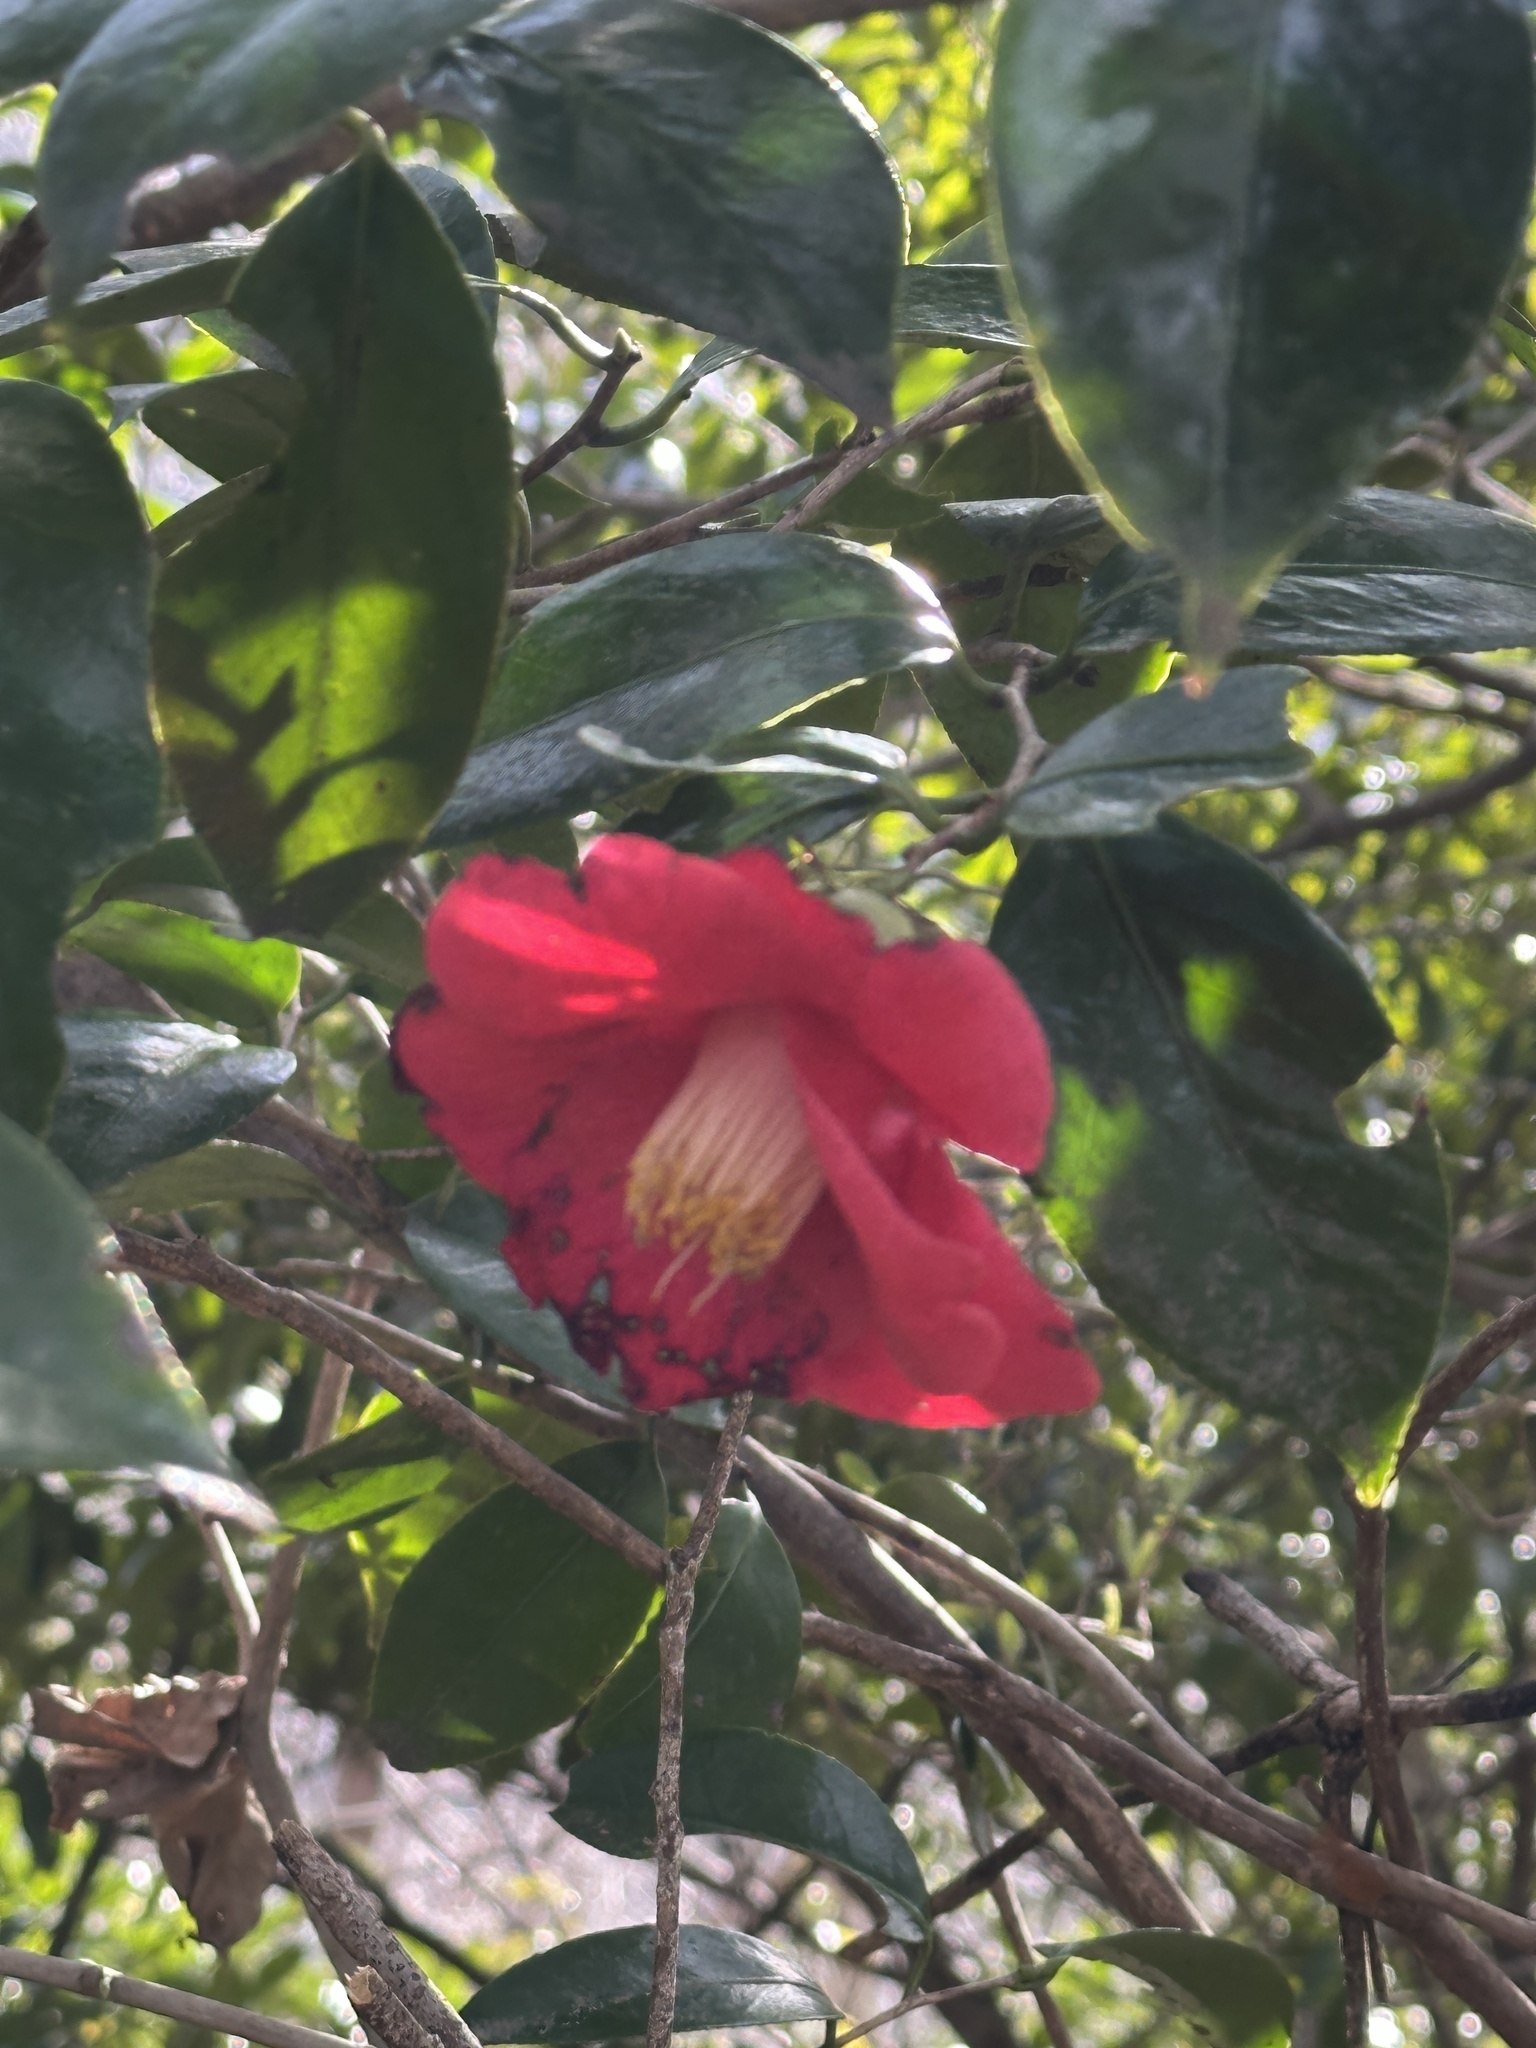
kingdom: Plantae
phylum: Tracheophyta
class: Magnoliopsida
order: Ericales
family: Theaceae
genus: Camellia
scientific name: Camellia japonica
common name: Camellia
